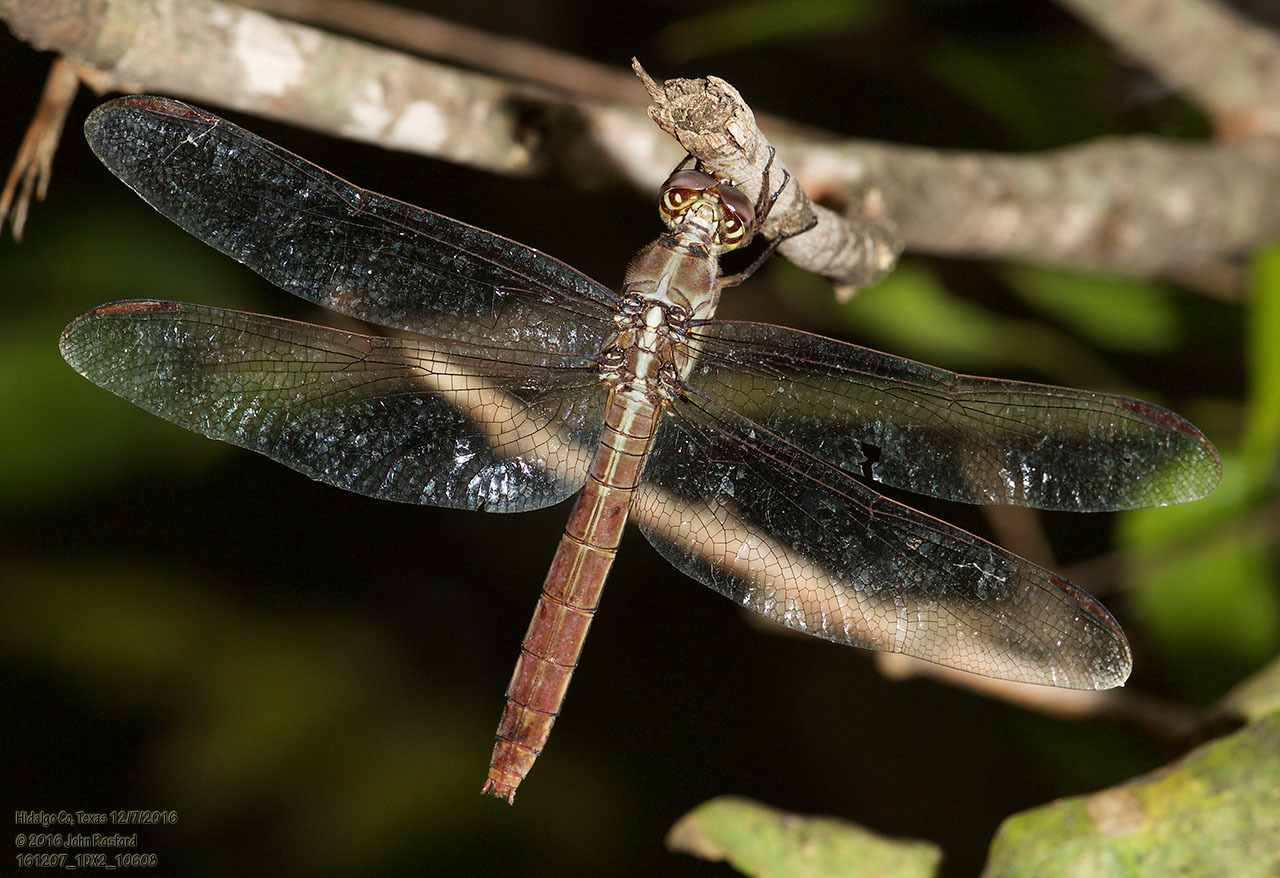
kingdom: Animalia
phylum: Arthropoda
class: Insecta
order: Odonata
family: Libellulidae
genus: Orthemis
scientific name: Orthemis ferruginea
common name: Roseate skimmer
